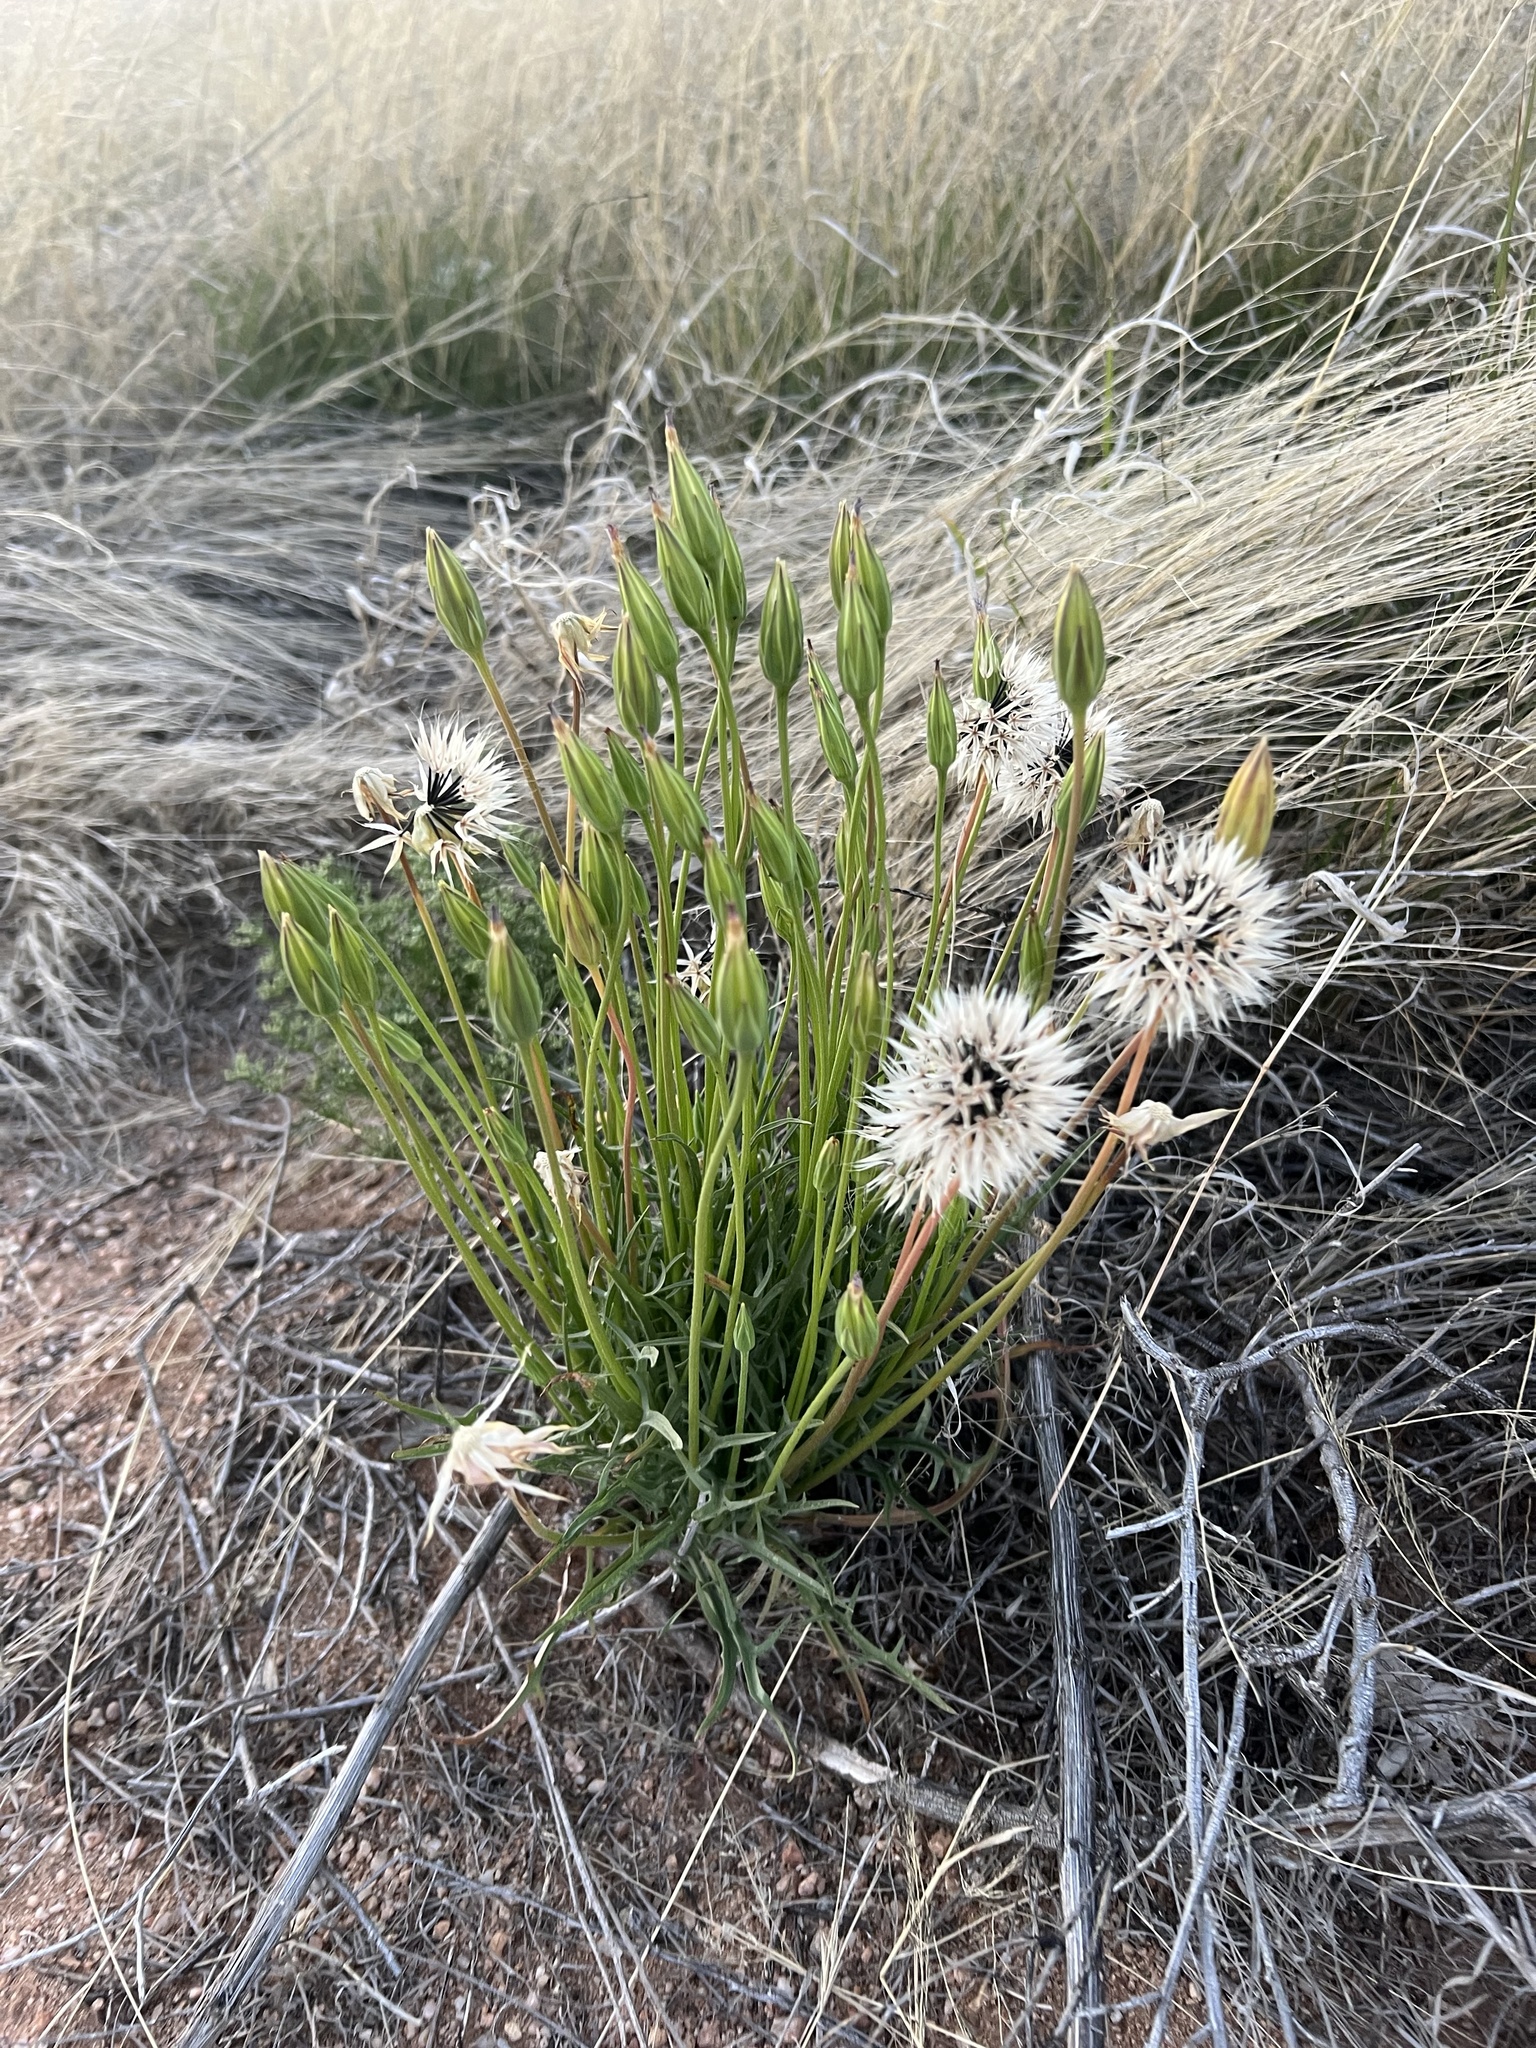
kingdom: Plantae
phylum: Tracheophyta
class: Magnoliopsida
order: Asterales
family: Asteraceae
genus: Microseris
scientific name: Microseris lindleyi
